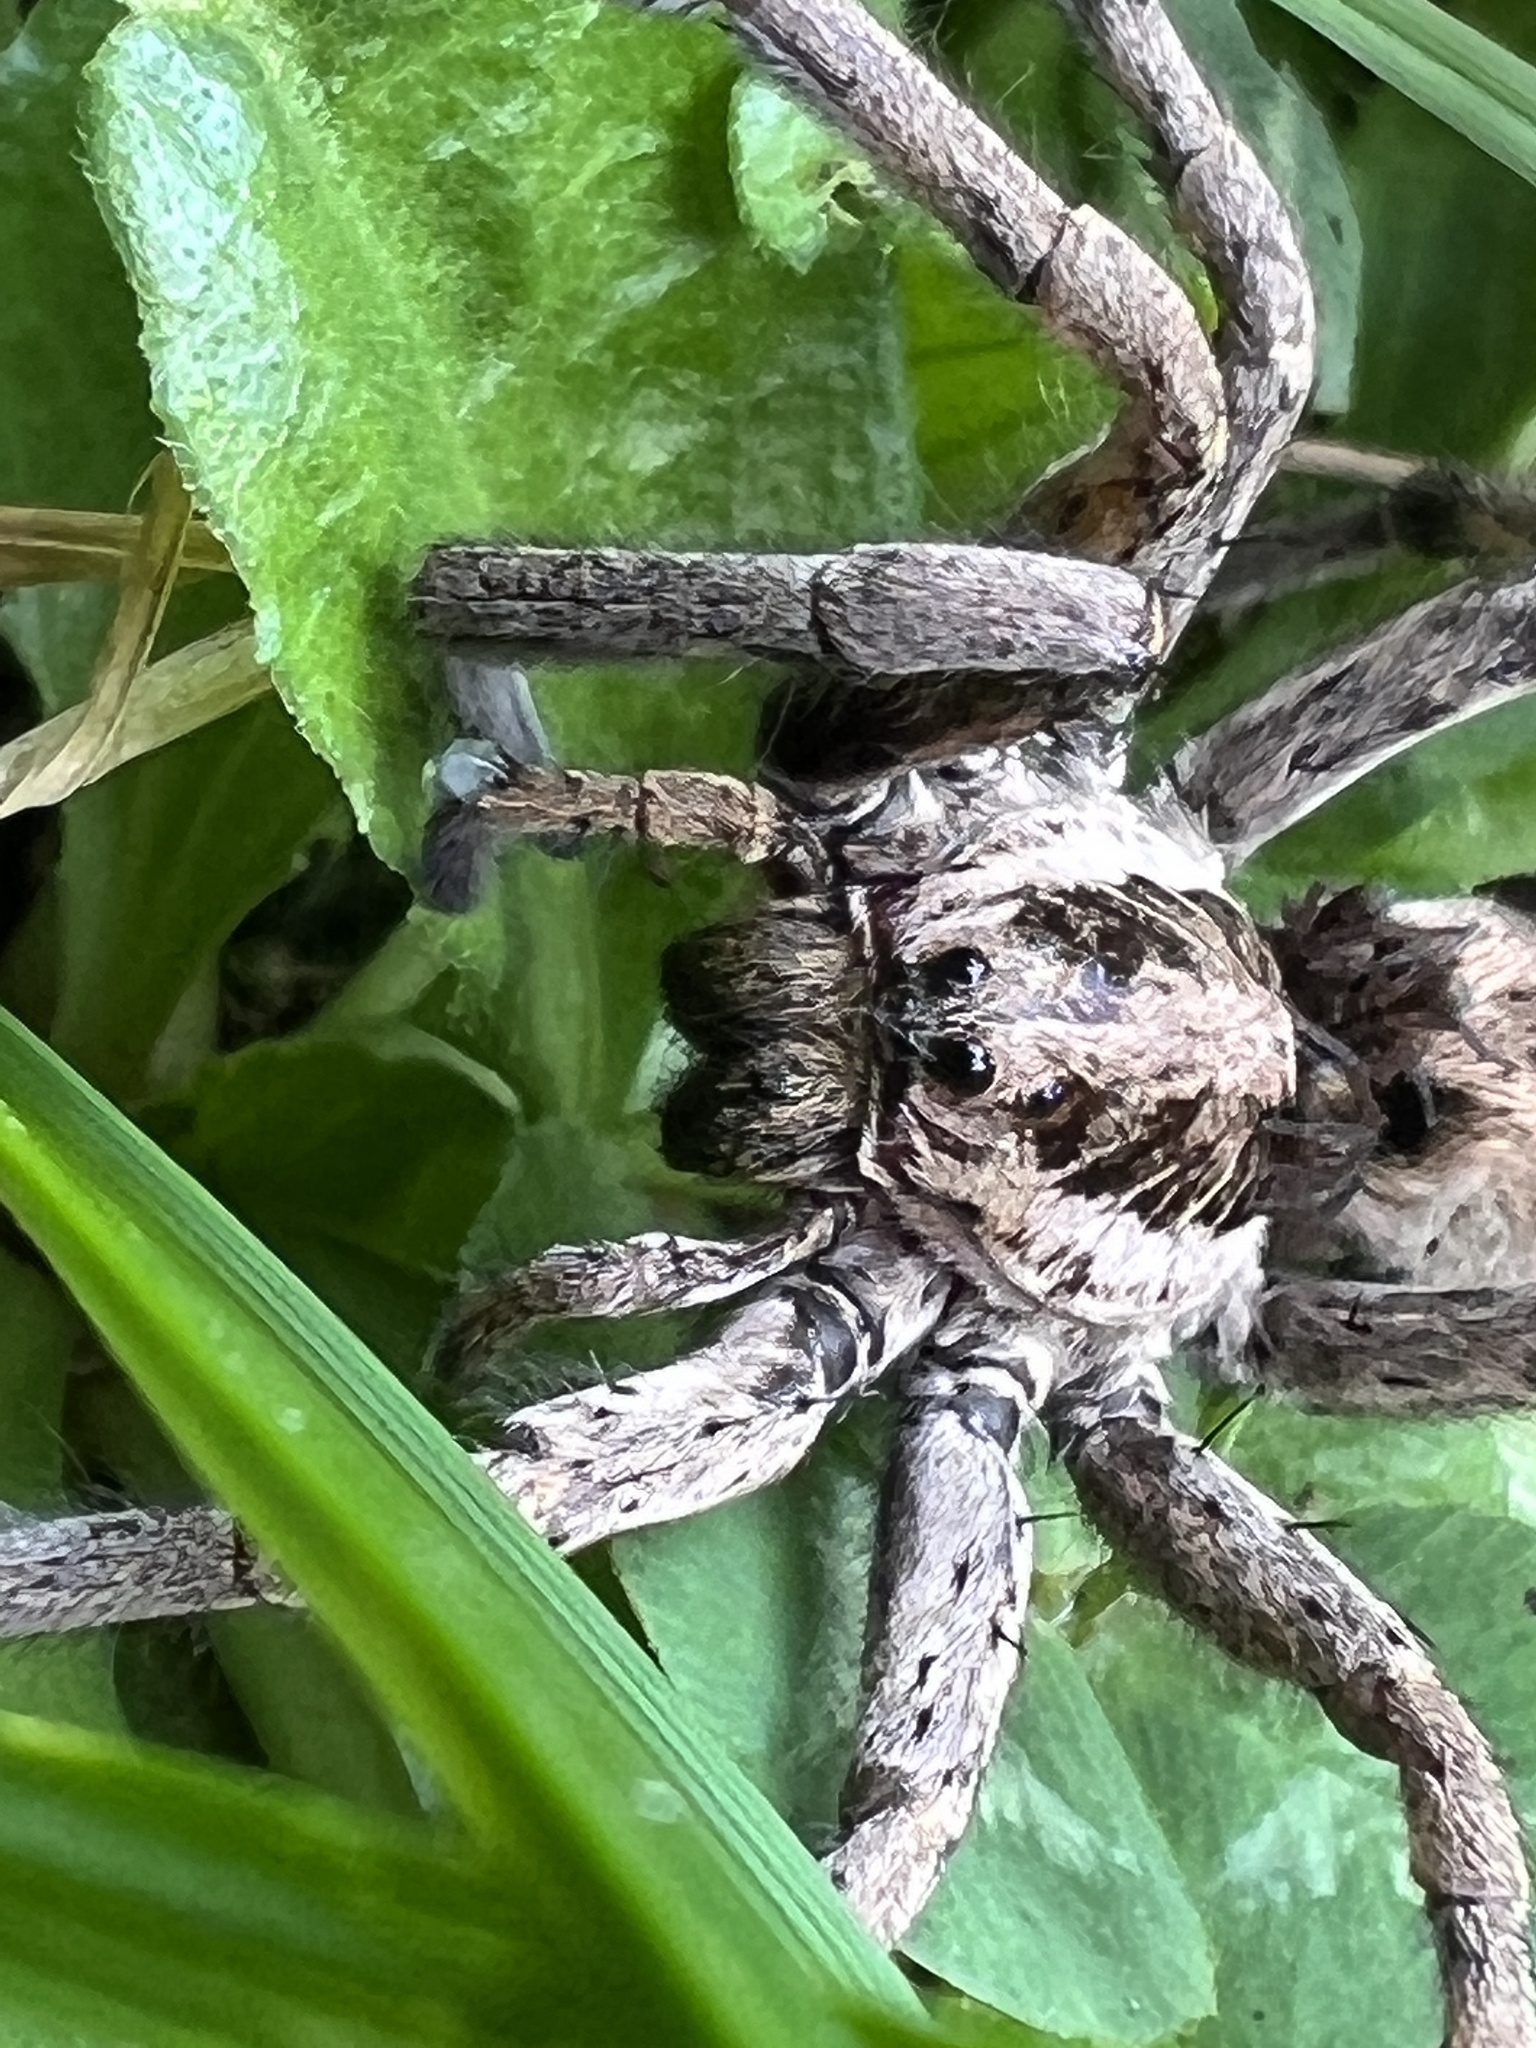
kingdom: Animalia
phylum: Arthropoda
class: Arachnida
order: Araneae
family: Lycosidae
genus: Hogna
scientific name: Hogna radiata
